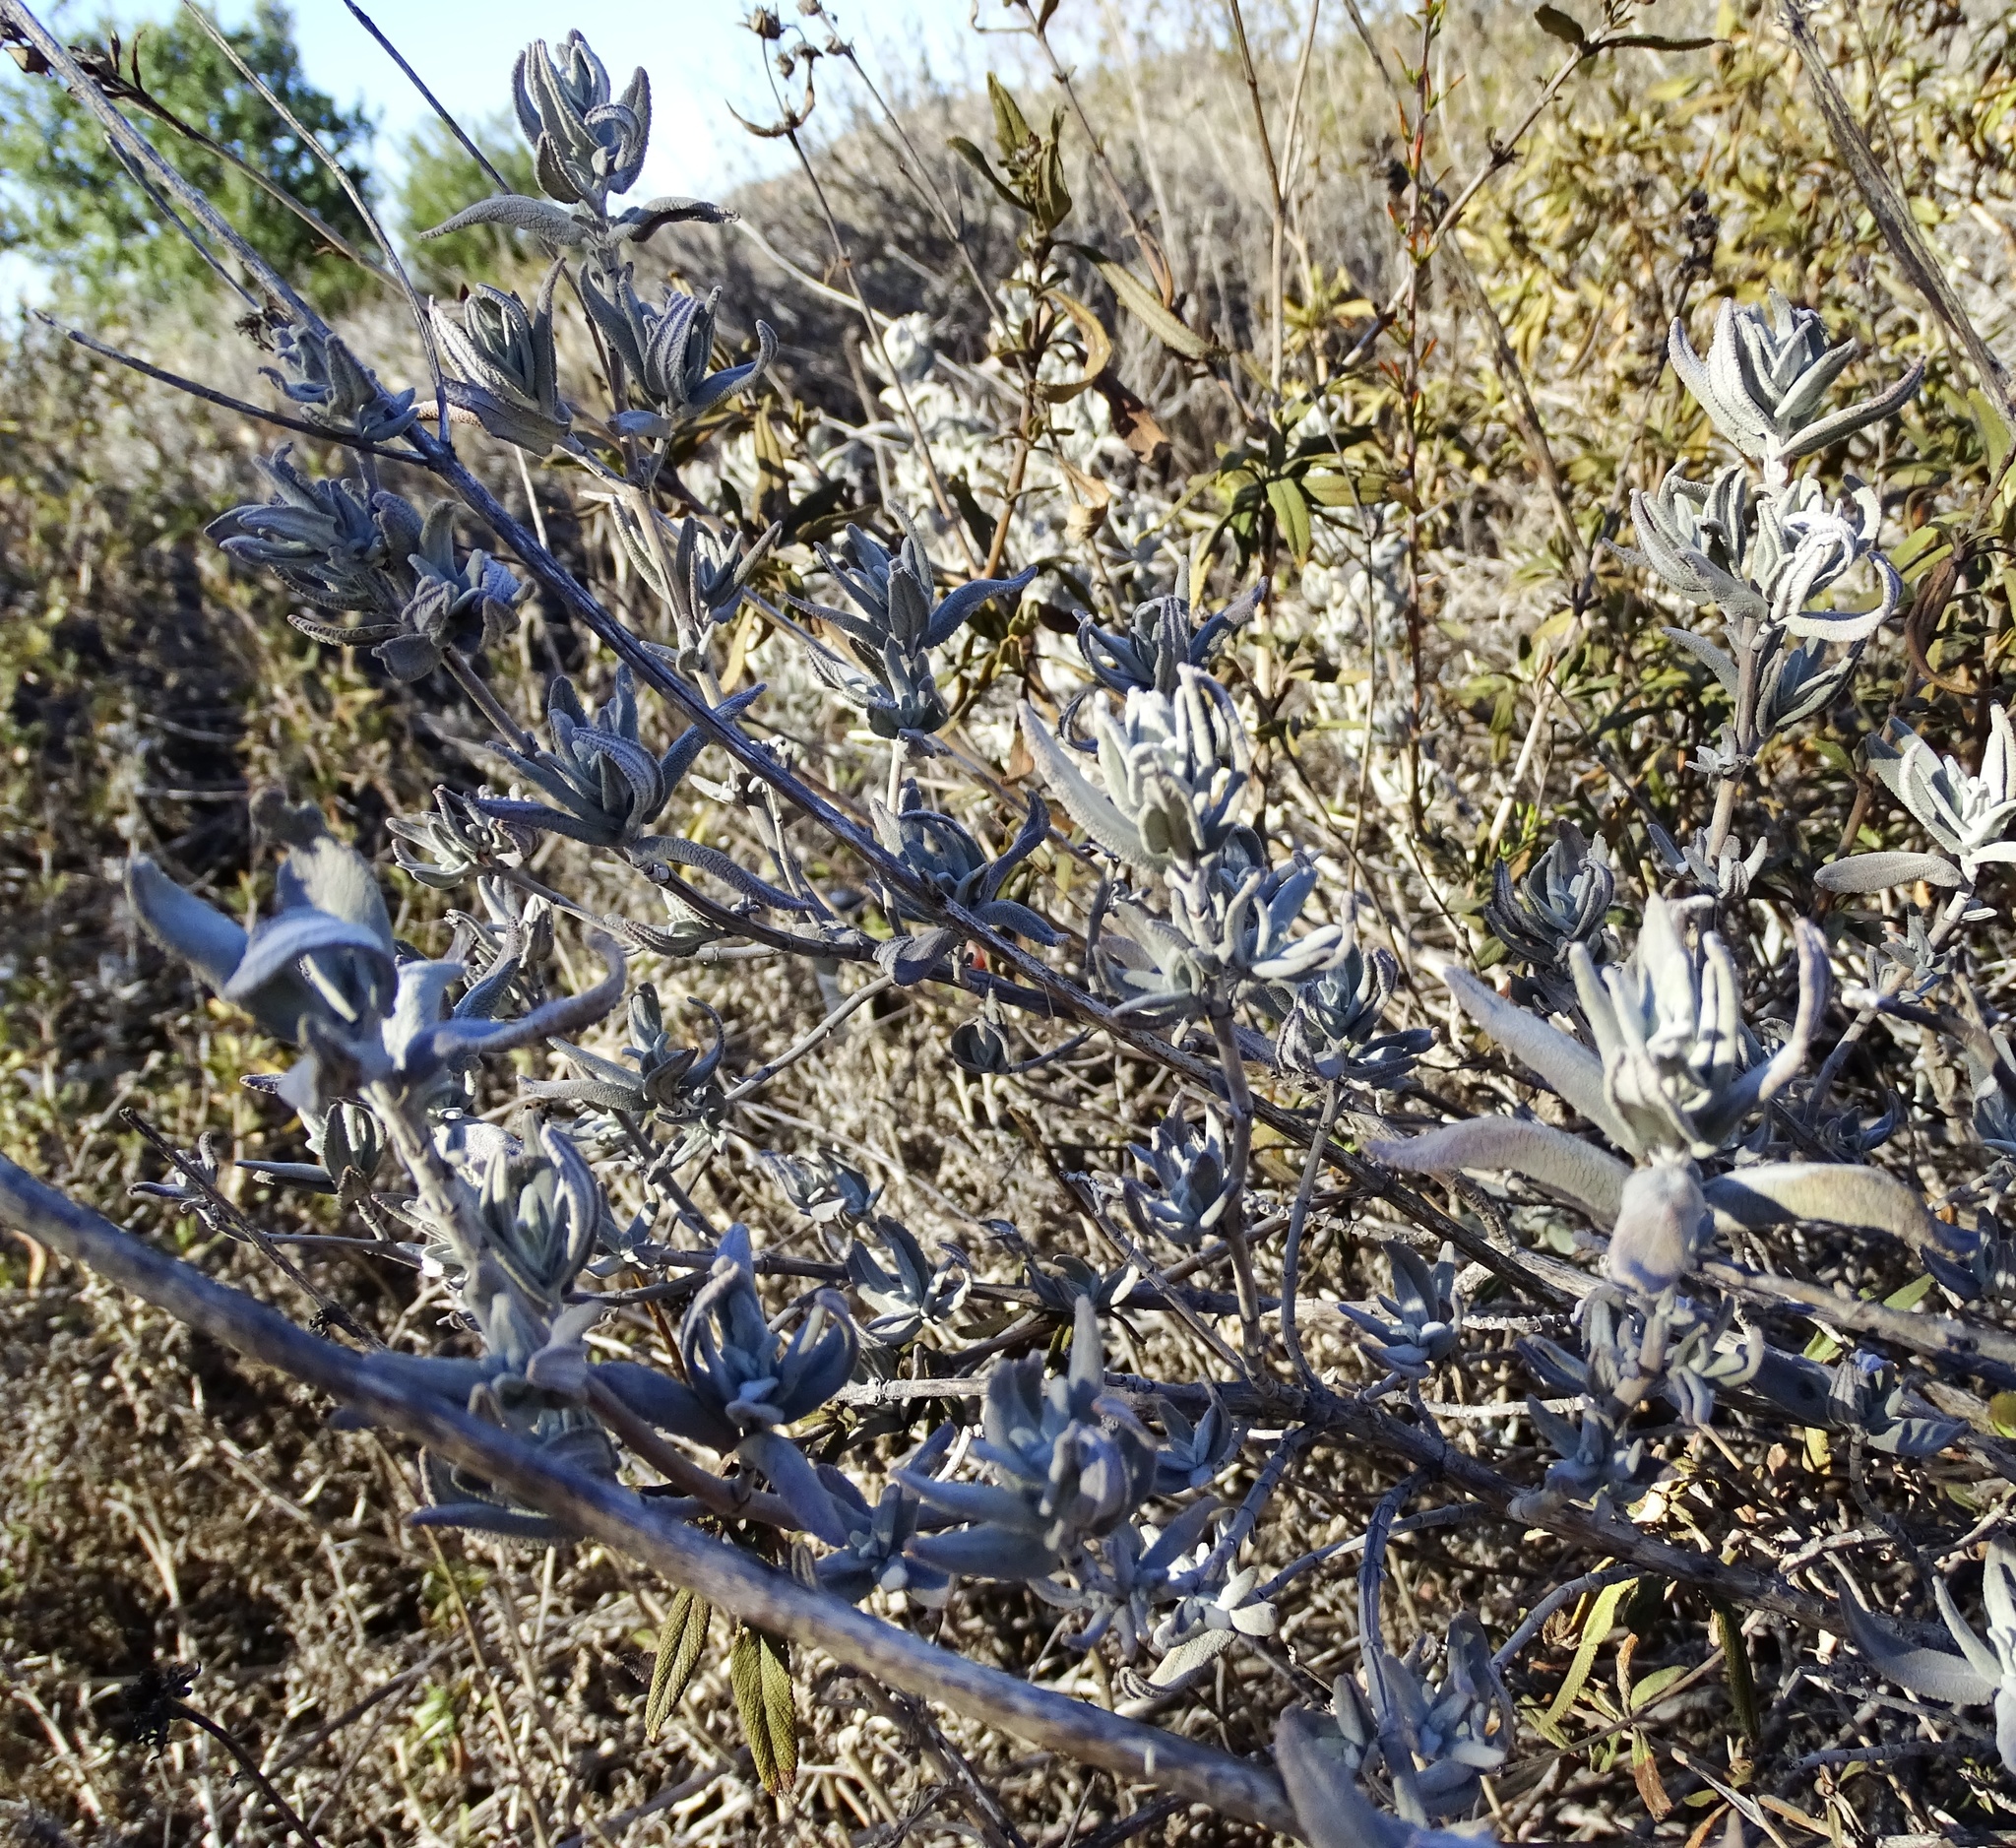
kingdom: Plantae
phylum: Tracheophyta
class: Magnoliopsida
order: Lamiales
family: Lamiaceae
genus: Salvia
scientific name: Salvia leucophylla
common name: Purple sage
